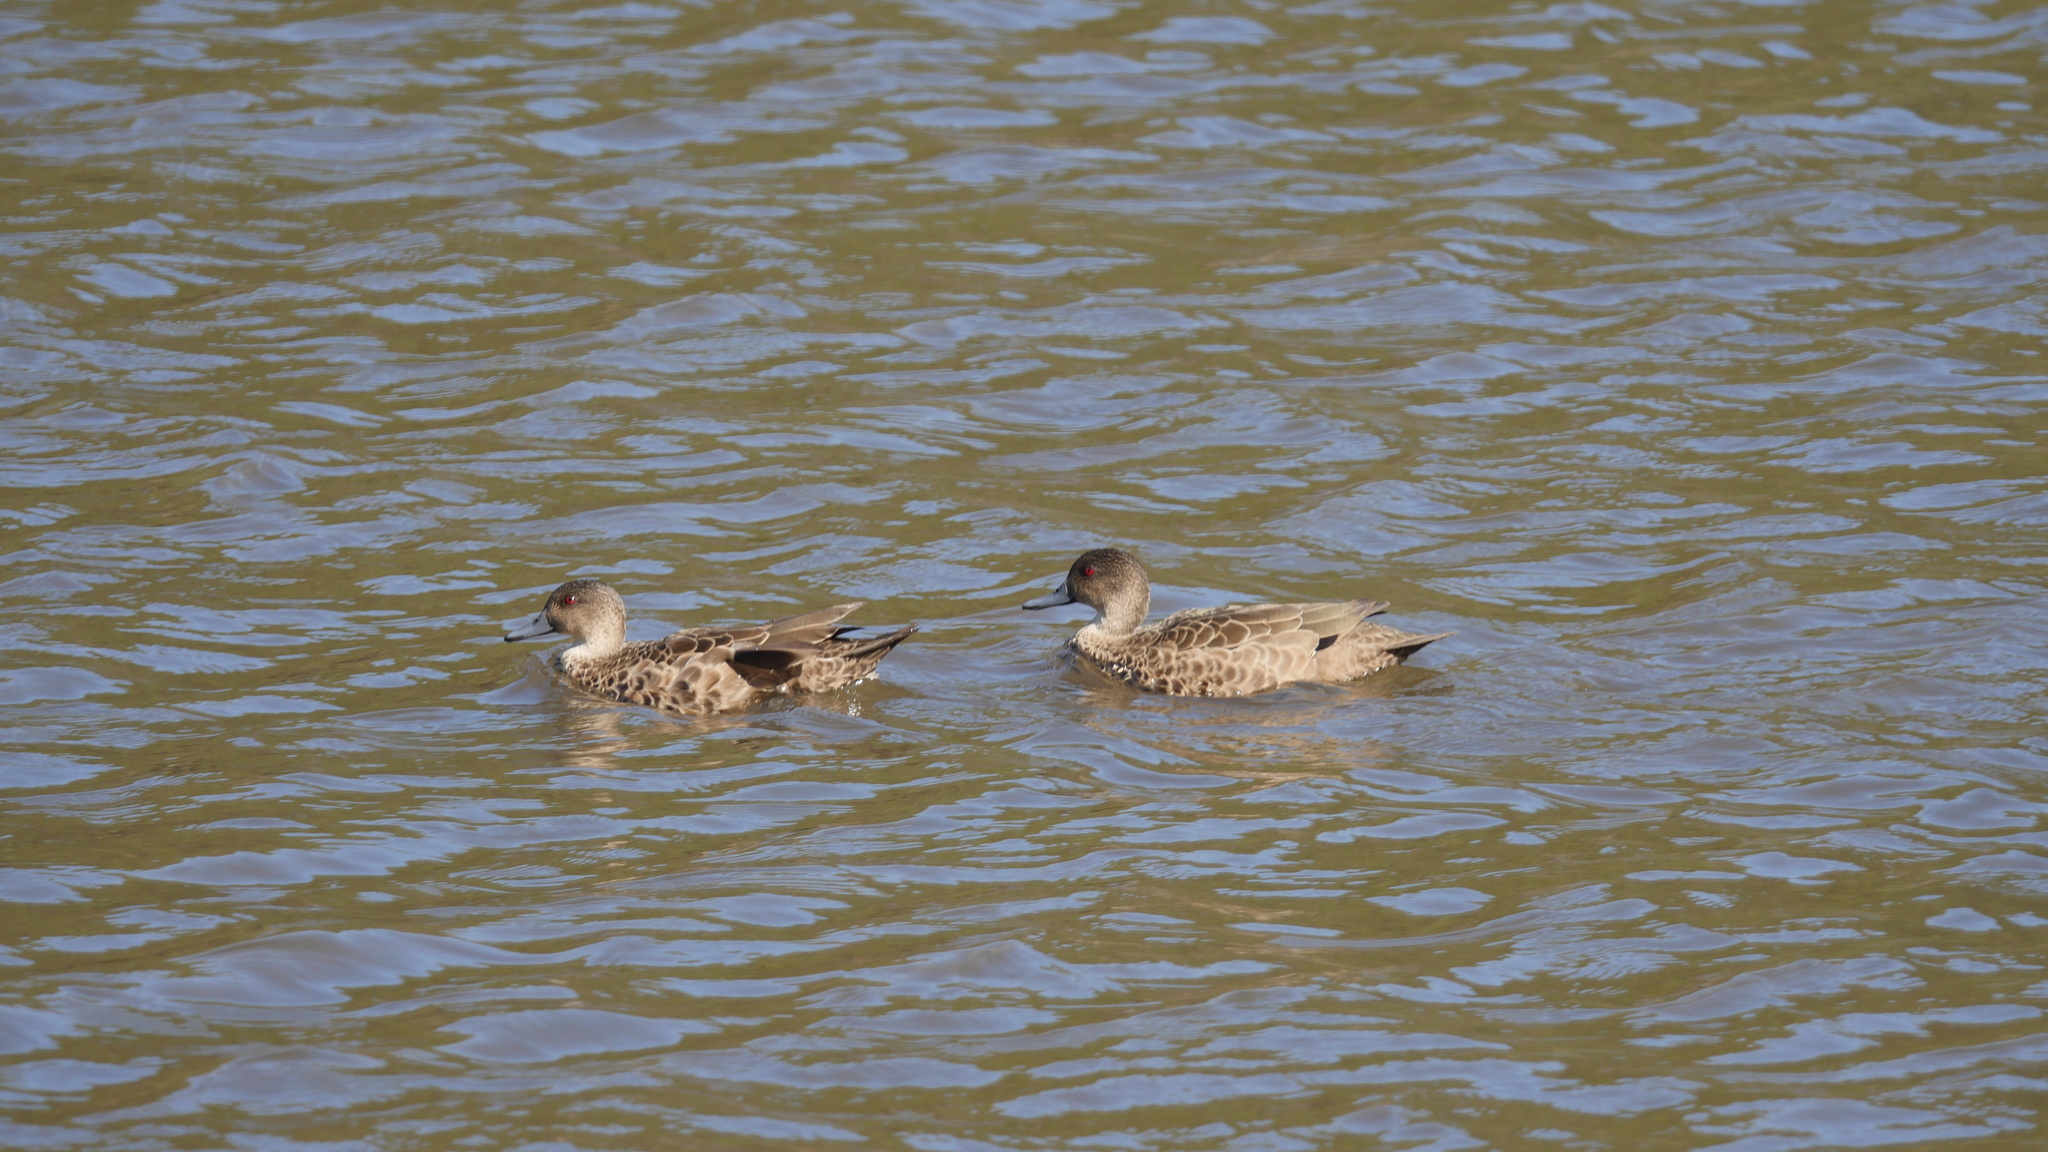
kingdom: Animalia
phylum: Chordata
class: Aves
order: Anseriformes
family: Anatidae
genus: Anas
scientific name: Anas gracilis
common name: Grey teal
